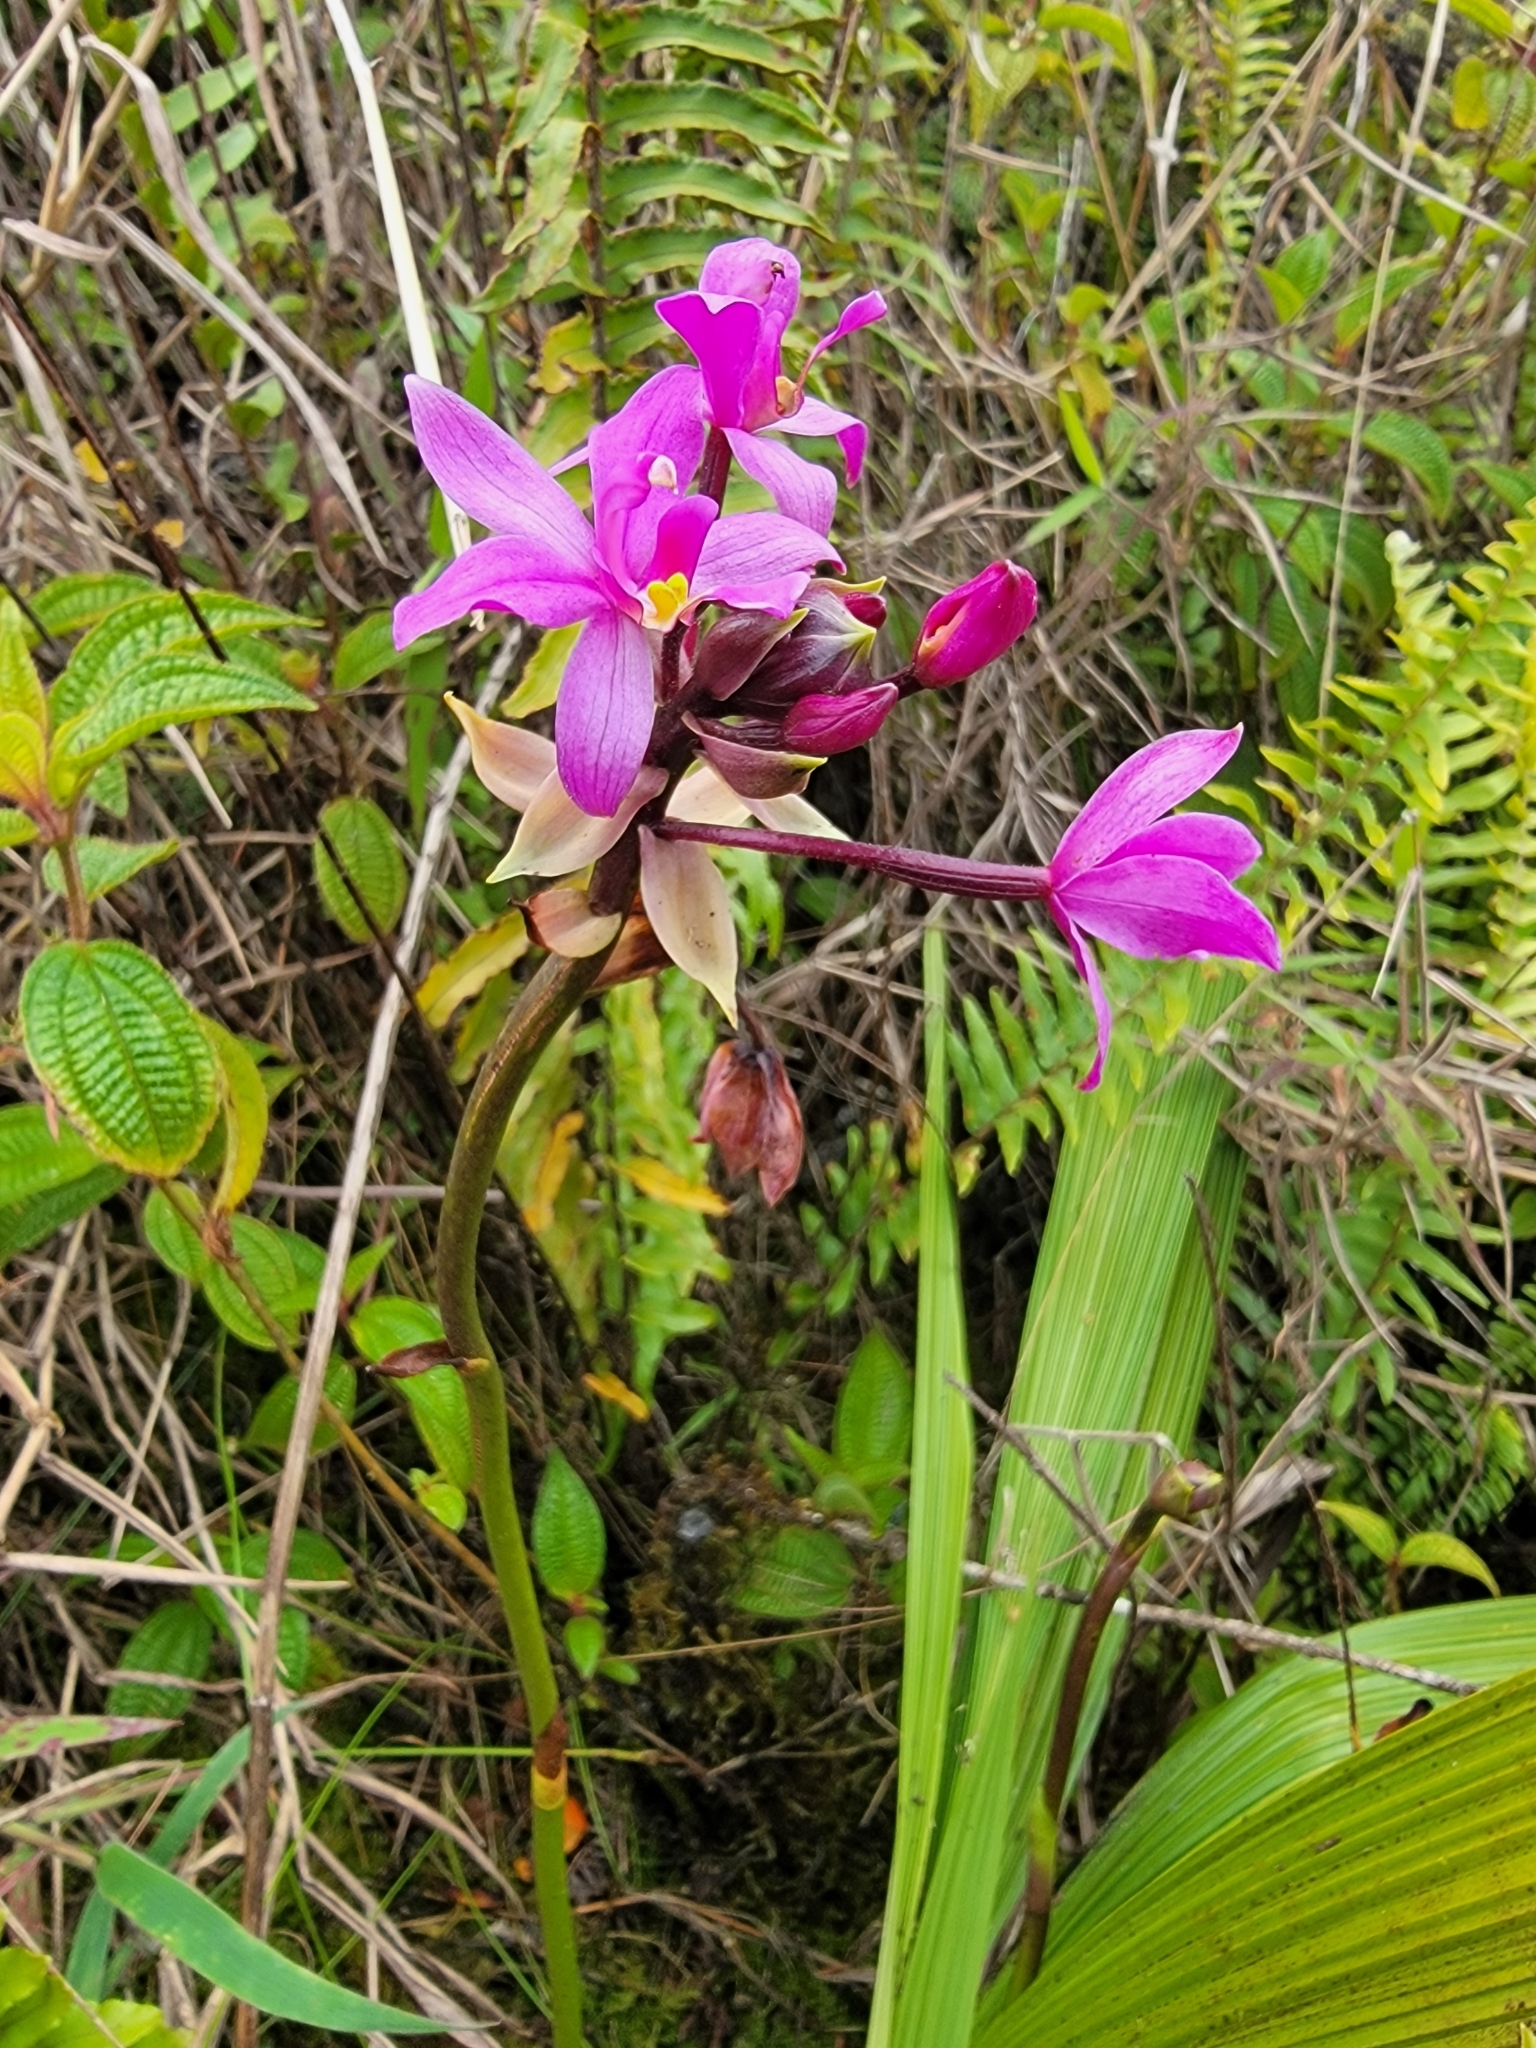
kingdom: Plantae
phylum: Tracheophyta
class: Liliopsida
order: Asparagales
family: Orchidaceae
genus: Spathoglottis
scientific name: Spathoglottis plicata
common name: Philippine ground orchid
